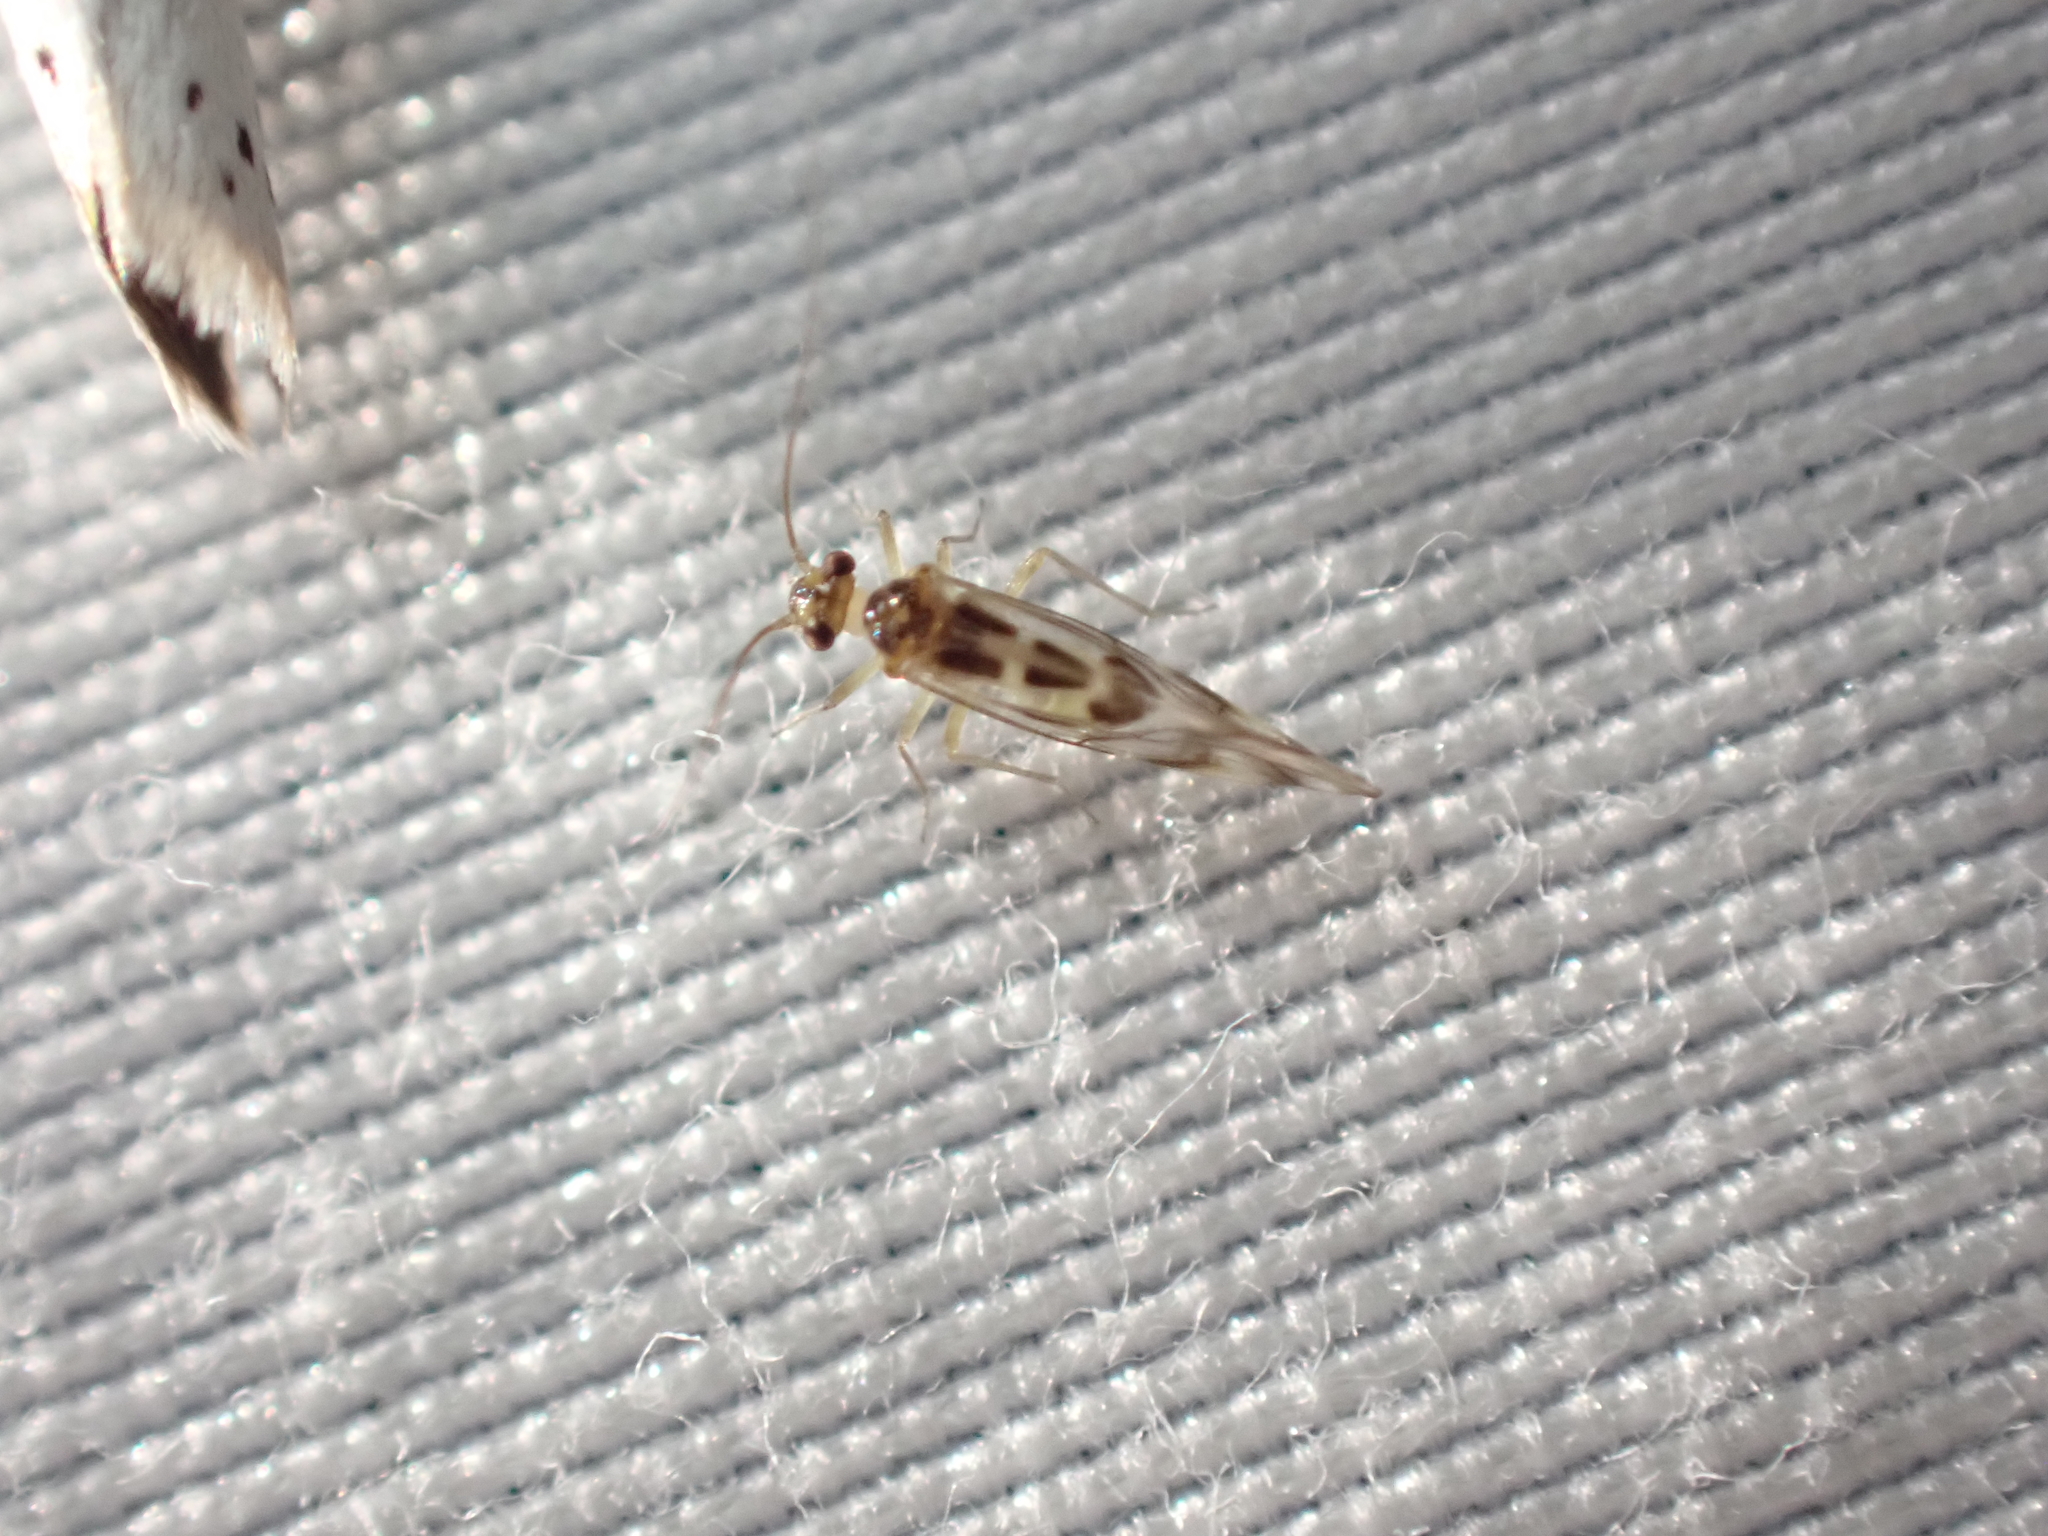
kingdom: Animalia
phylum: Arthropoda
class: Insecta
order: Psocodea
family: Stenopsocidae
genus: Graphopsocus
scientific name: Graphopsocus cruciatus
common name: Lizard bark louse
